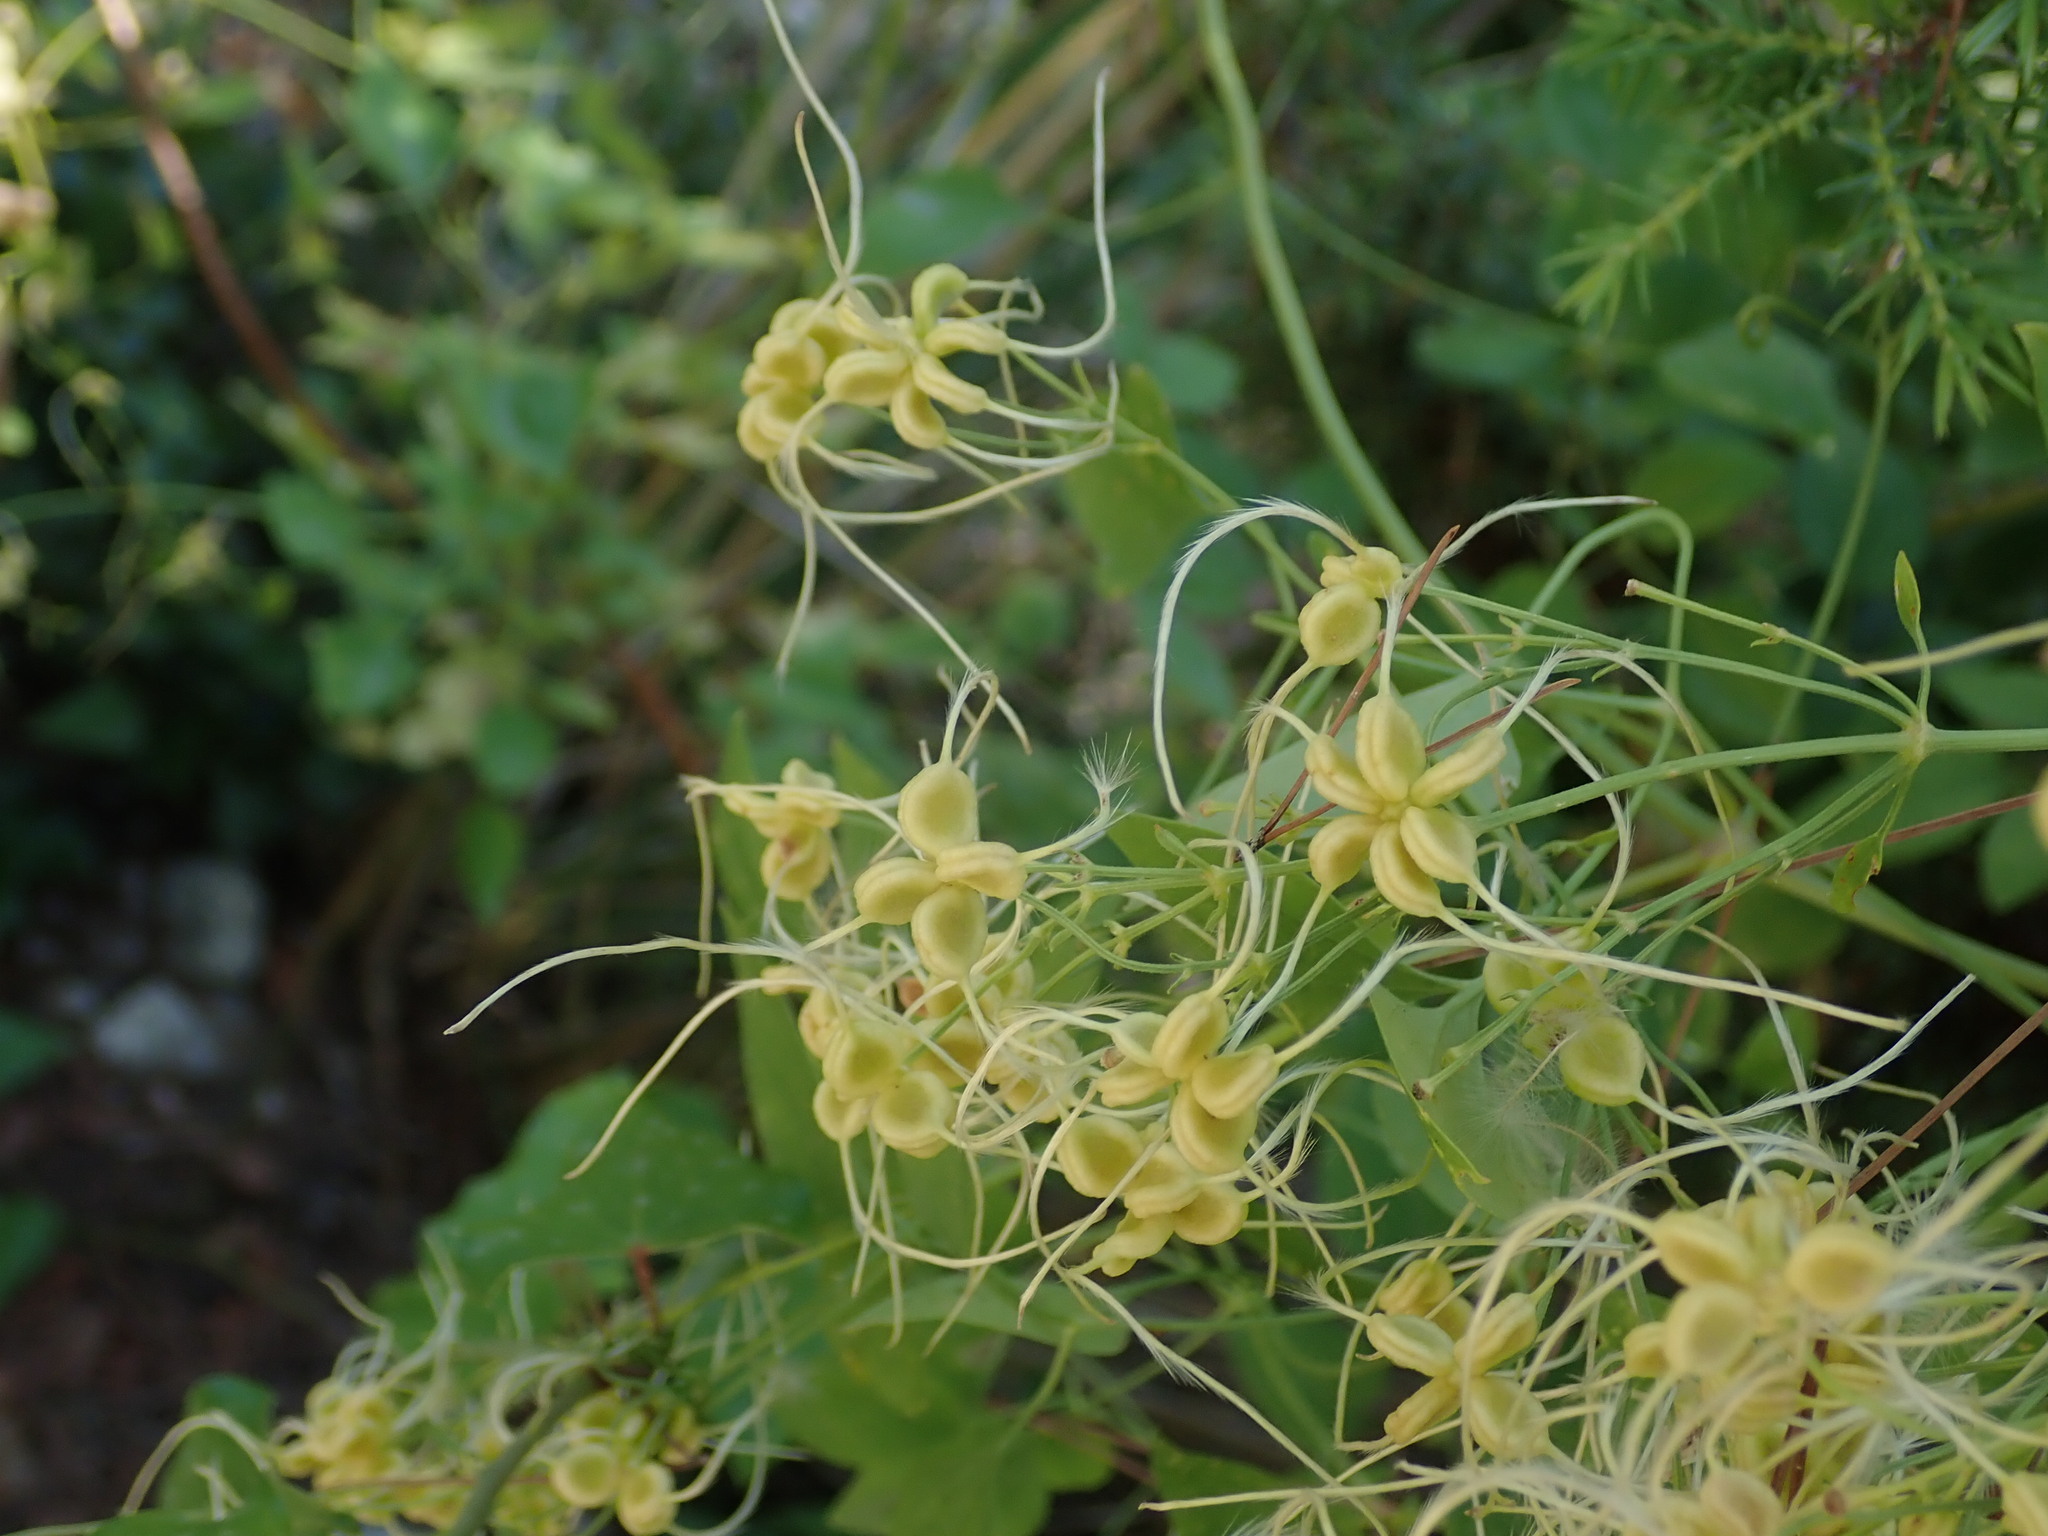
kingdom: Plantae
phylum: Tracheophyta
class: Magnoliopsida
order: Ranunculales
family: Ranunculaceae
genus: Clematis
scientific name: Clematis flammula
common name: Virgin's-bower
